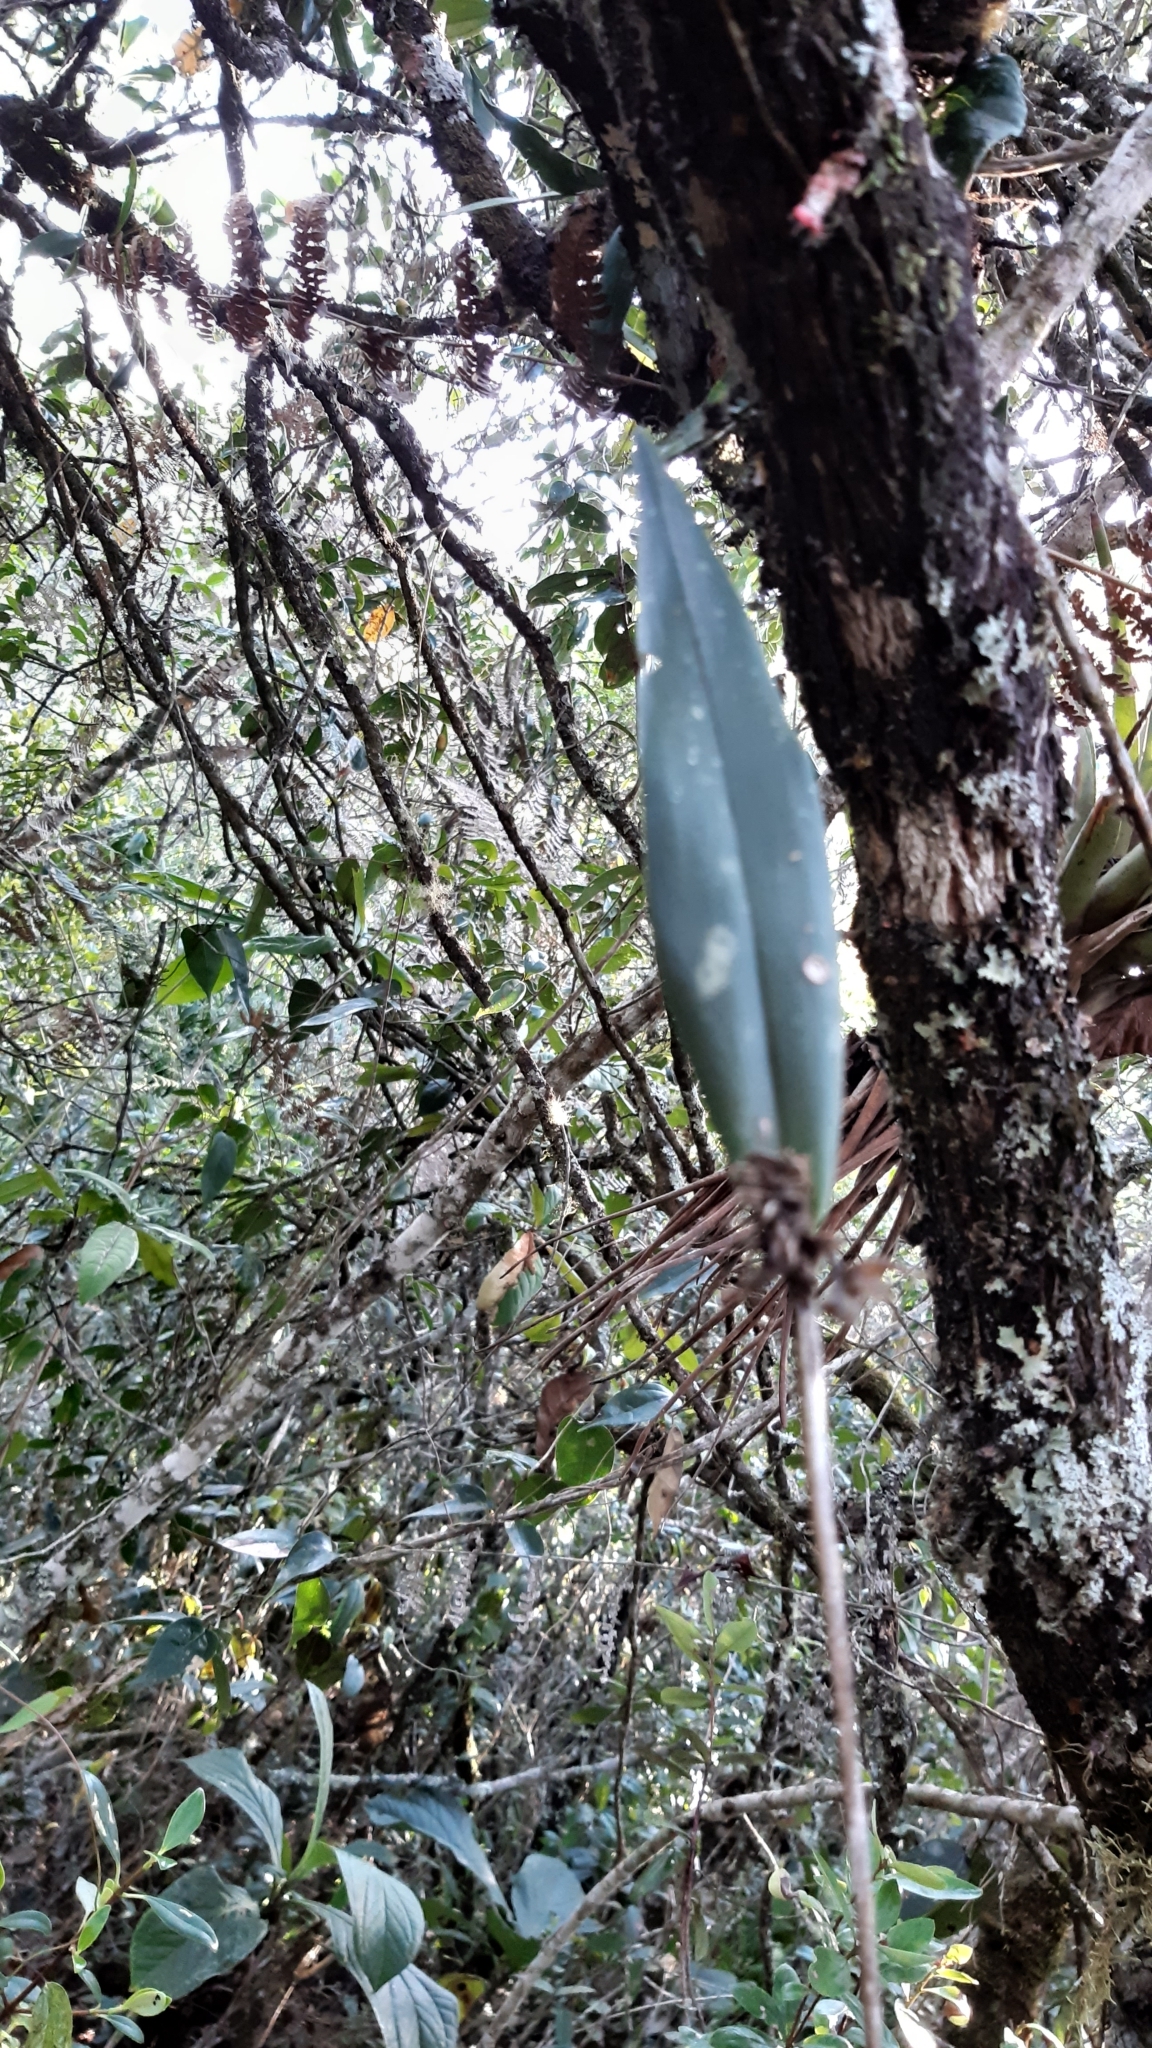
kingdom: Plantae
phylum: Tracheophyta
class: Liliopsida
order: Asparagales
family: Orchidaceae
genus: Myoxanthus
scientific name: Myoxanthus ceratothallis
